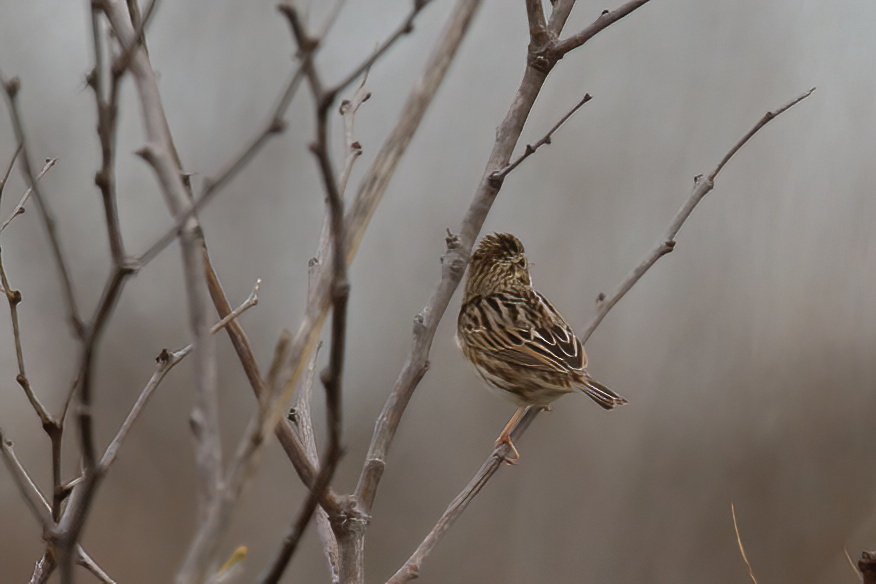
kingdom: Animalia
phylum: Chordata
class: Aves
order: Passeriformes
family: Passerellidae
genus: Passerculus
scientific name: Passerculus sandwichensis
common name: Savannah sparrow
